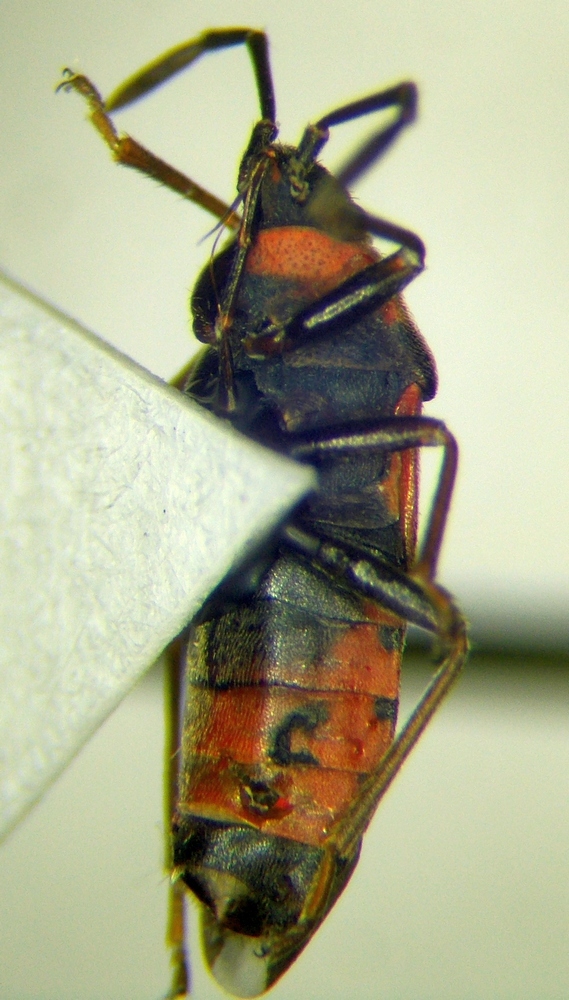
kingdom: Animalia
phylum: Arthropoda
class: Insecta
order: Hemiptera
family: Lygaeidae
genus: Horvathiolus
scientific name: Horvathiolus syriacus
